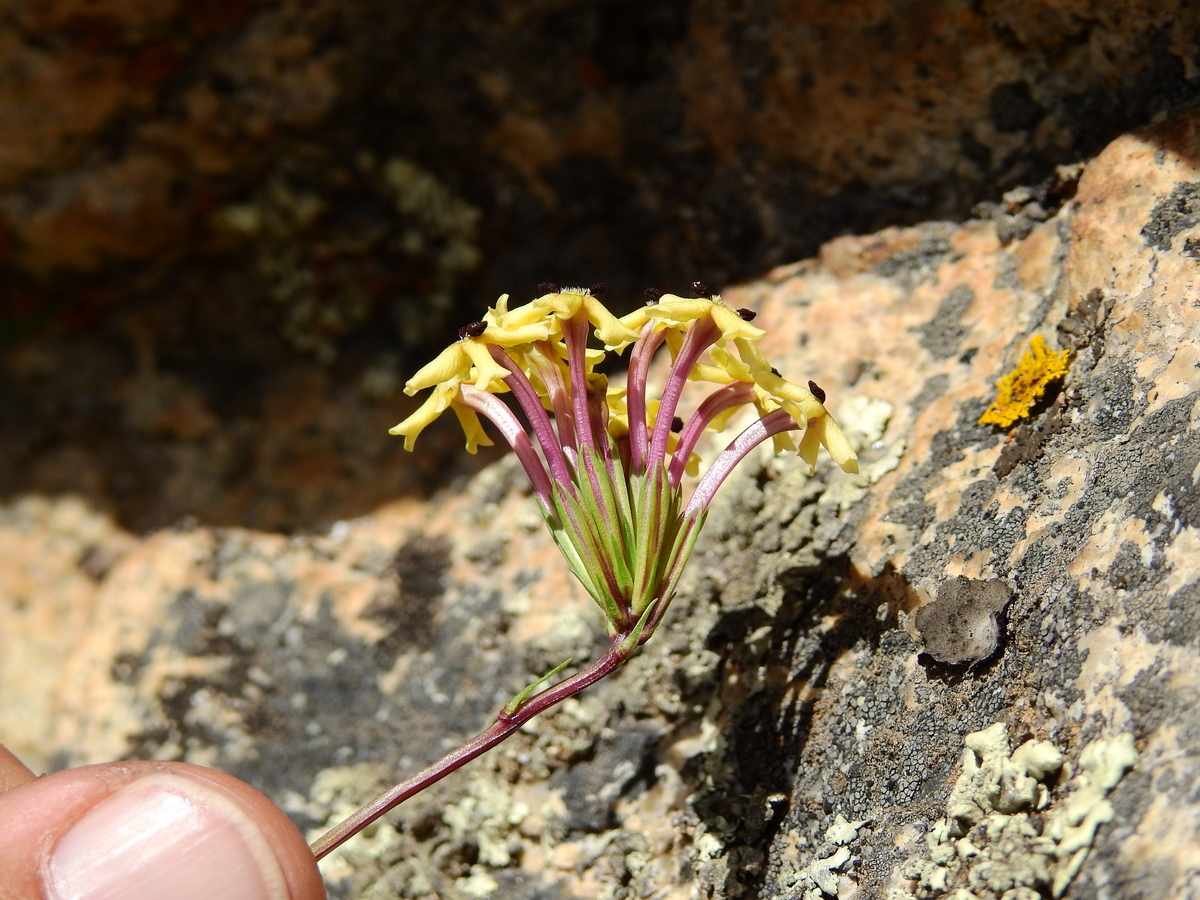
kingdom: Plantae
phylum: Tracheophyta
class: Magnoliopsida
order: Lamiales
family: Verbenaceae
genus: Verbena
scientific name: Verbena araucana
